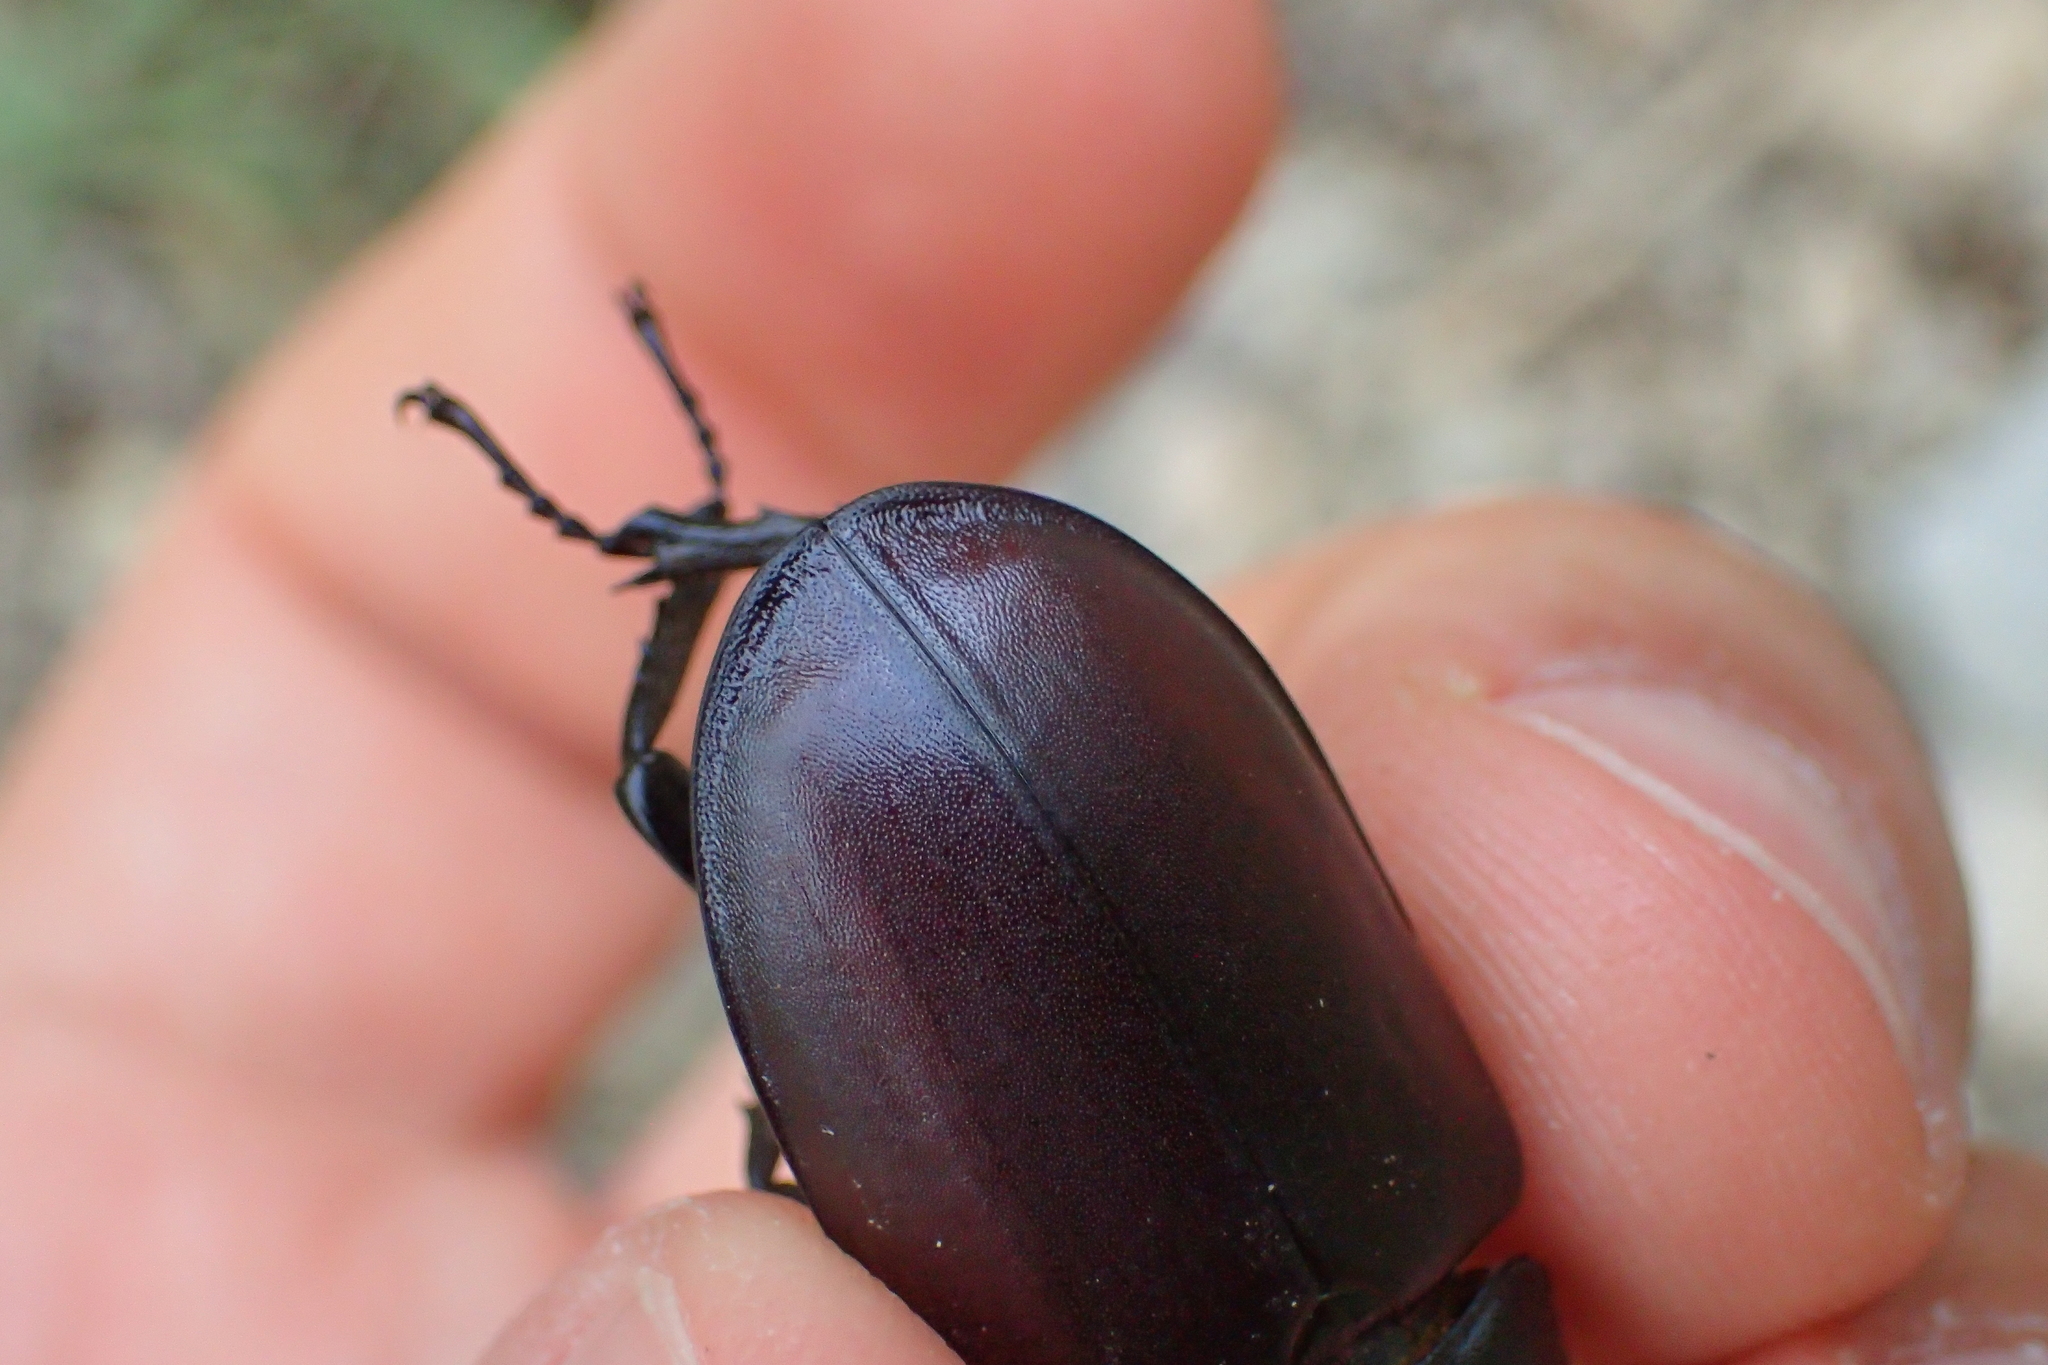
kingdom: Animalia
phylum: Arthropoda
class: Insecta
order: Coleoptera
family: Lucanidae
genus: Lucanus
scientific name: Lucanus cervus
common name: Stag beetle
